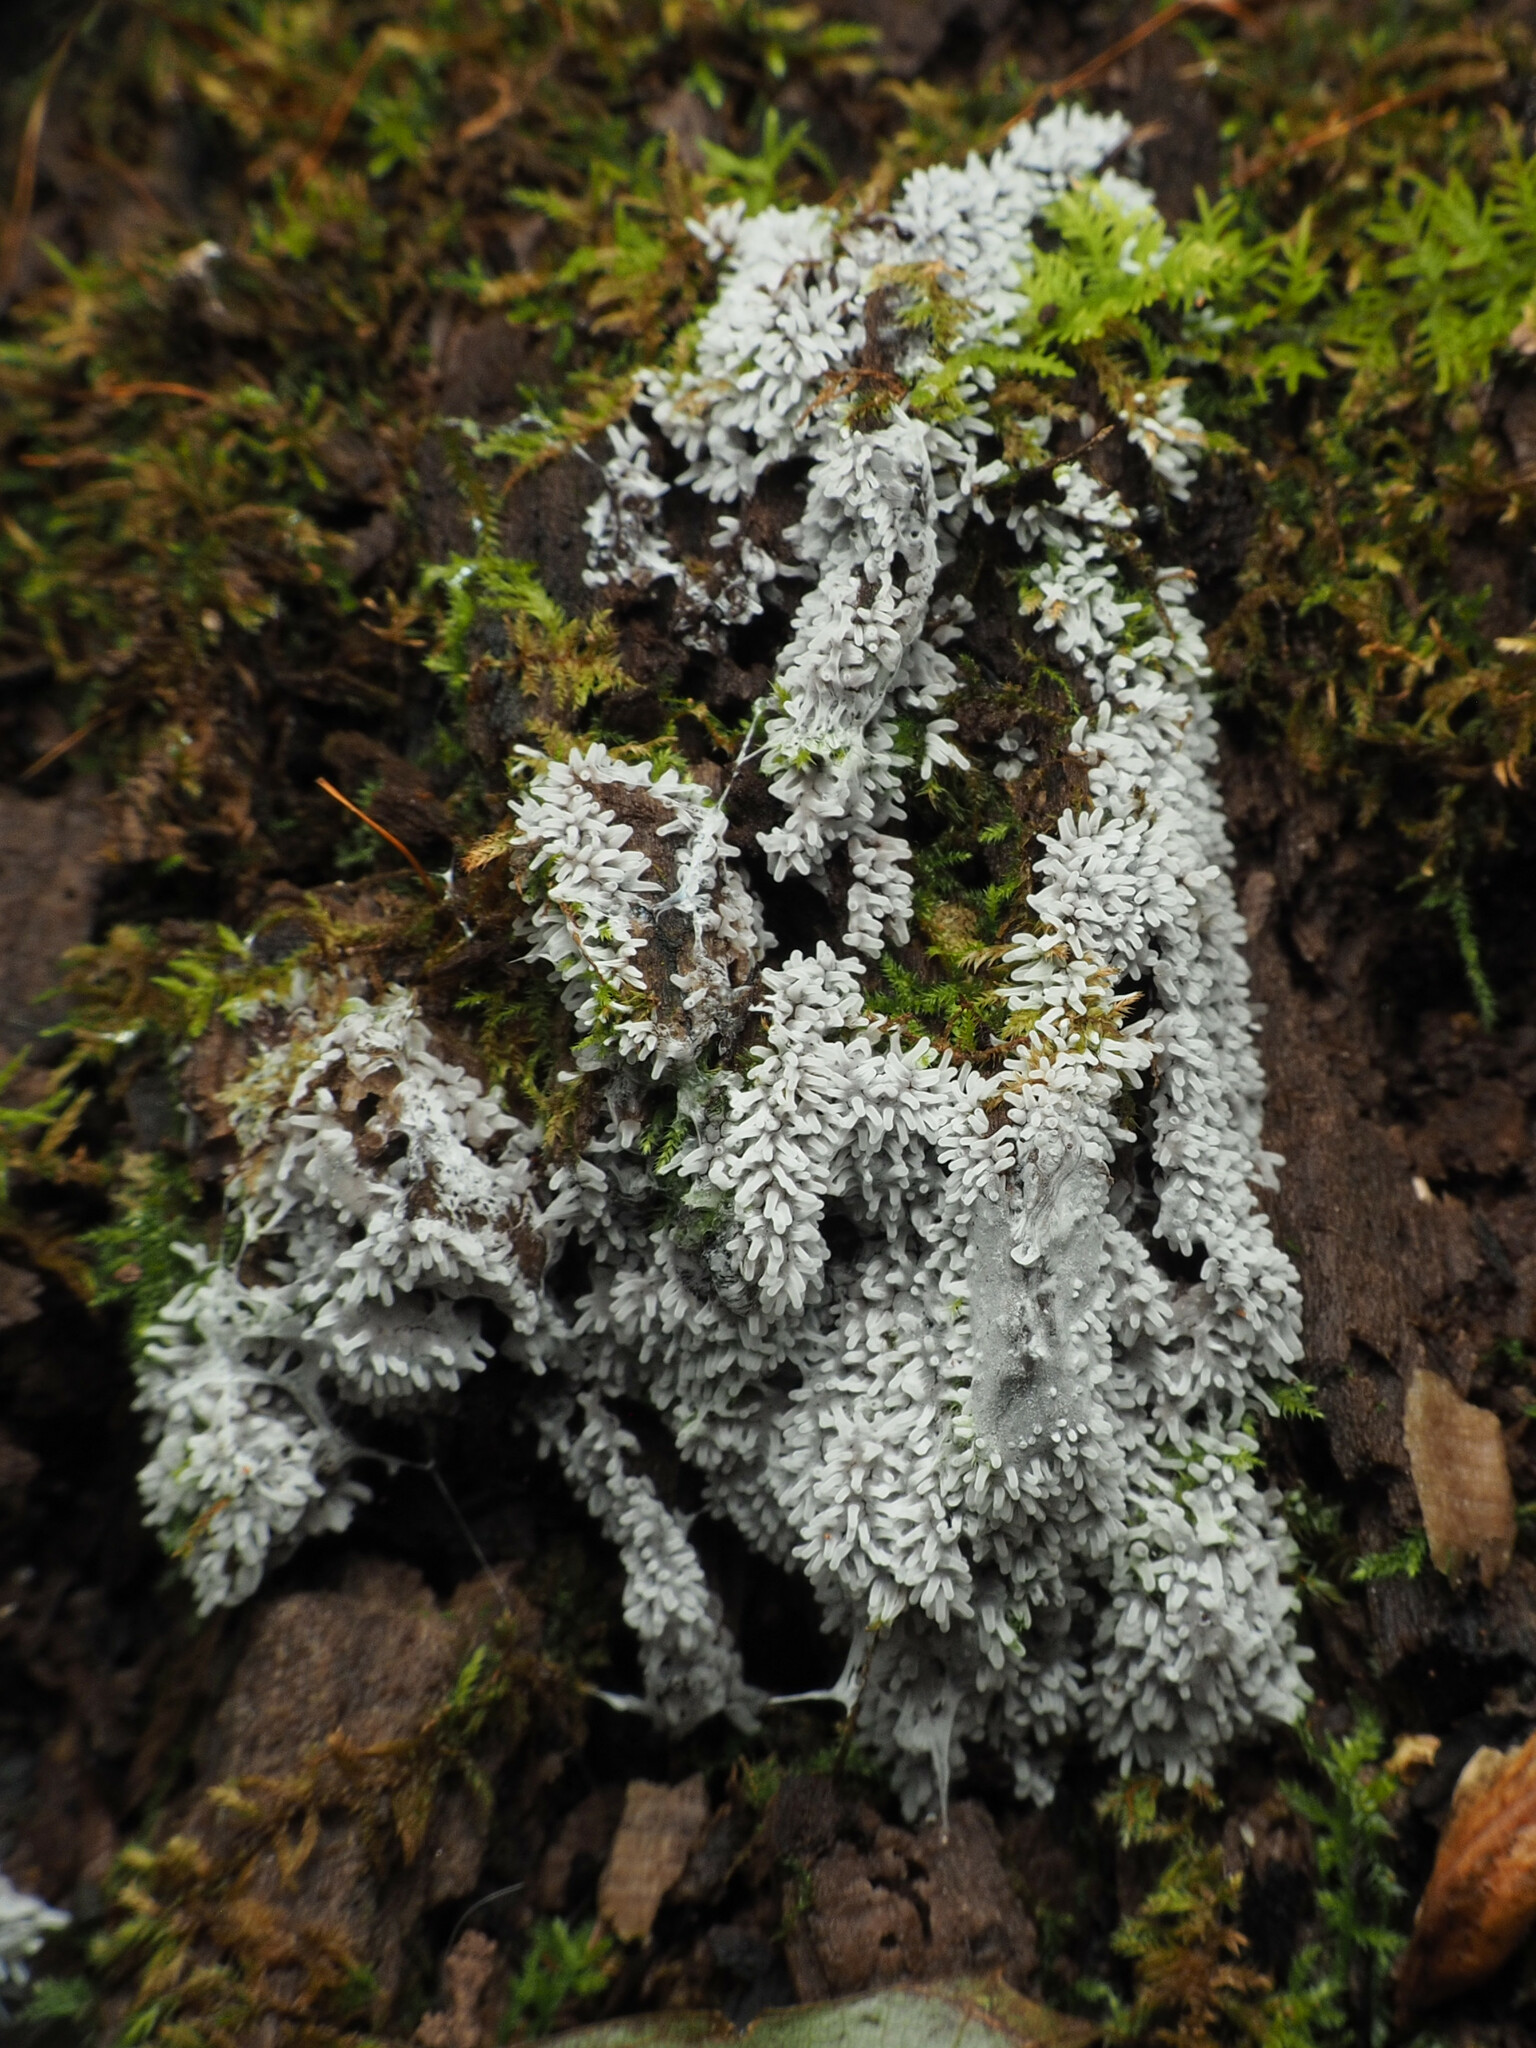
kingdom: Protozoa
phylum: Mycetozoa
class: Protosteliomycetes
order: Ceratiomyxales
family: Ceratiomyxaceae
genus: Ceratiomyxa
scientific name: Ceratiomyxa fruticulosa
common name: Honeycomb coral slime mold
